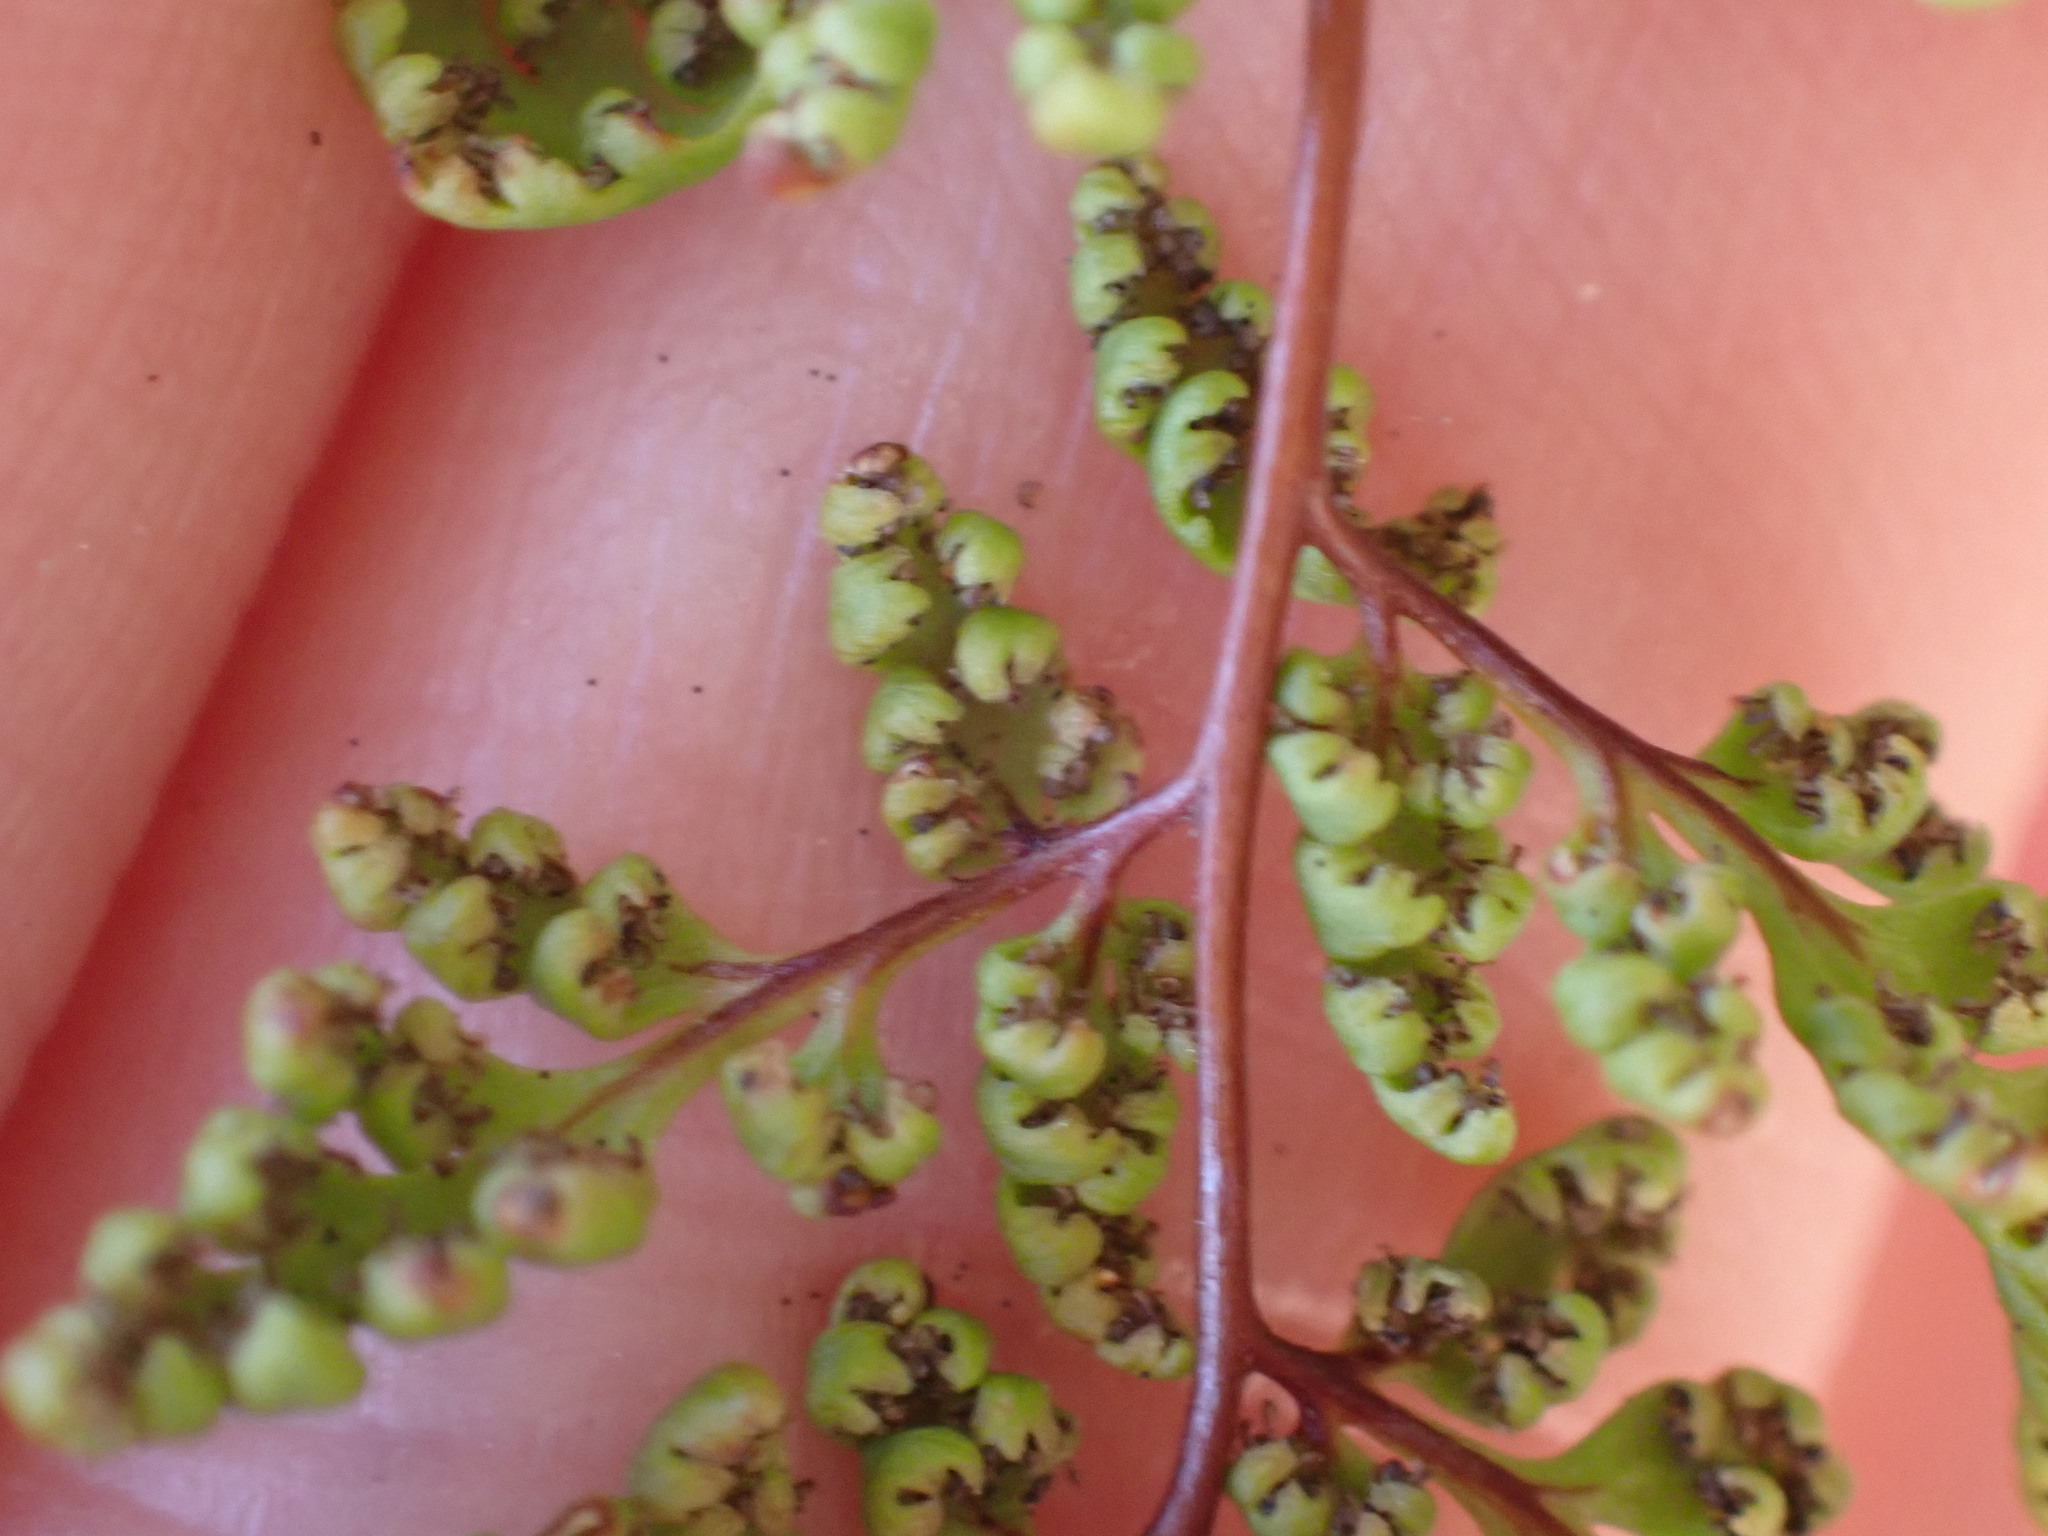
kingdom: Plantae
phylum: Tracheophyta
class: Polypodiopsida
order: Polypodiales
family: Pteridaceae
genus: Cheilanthes
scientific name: Cheilanthes sieberi
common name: Mulga fern
